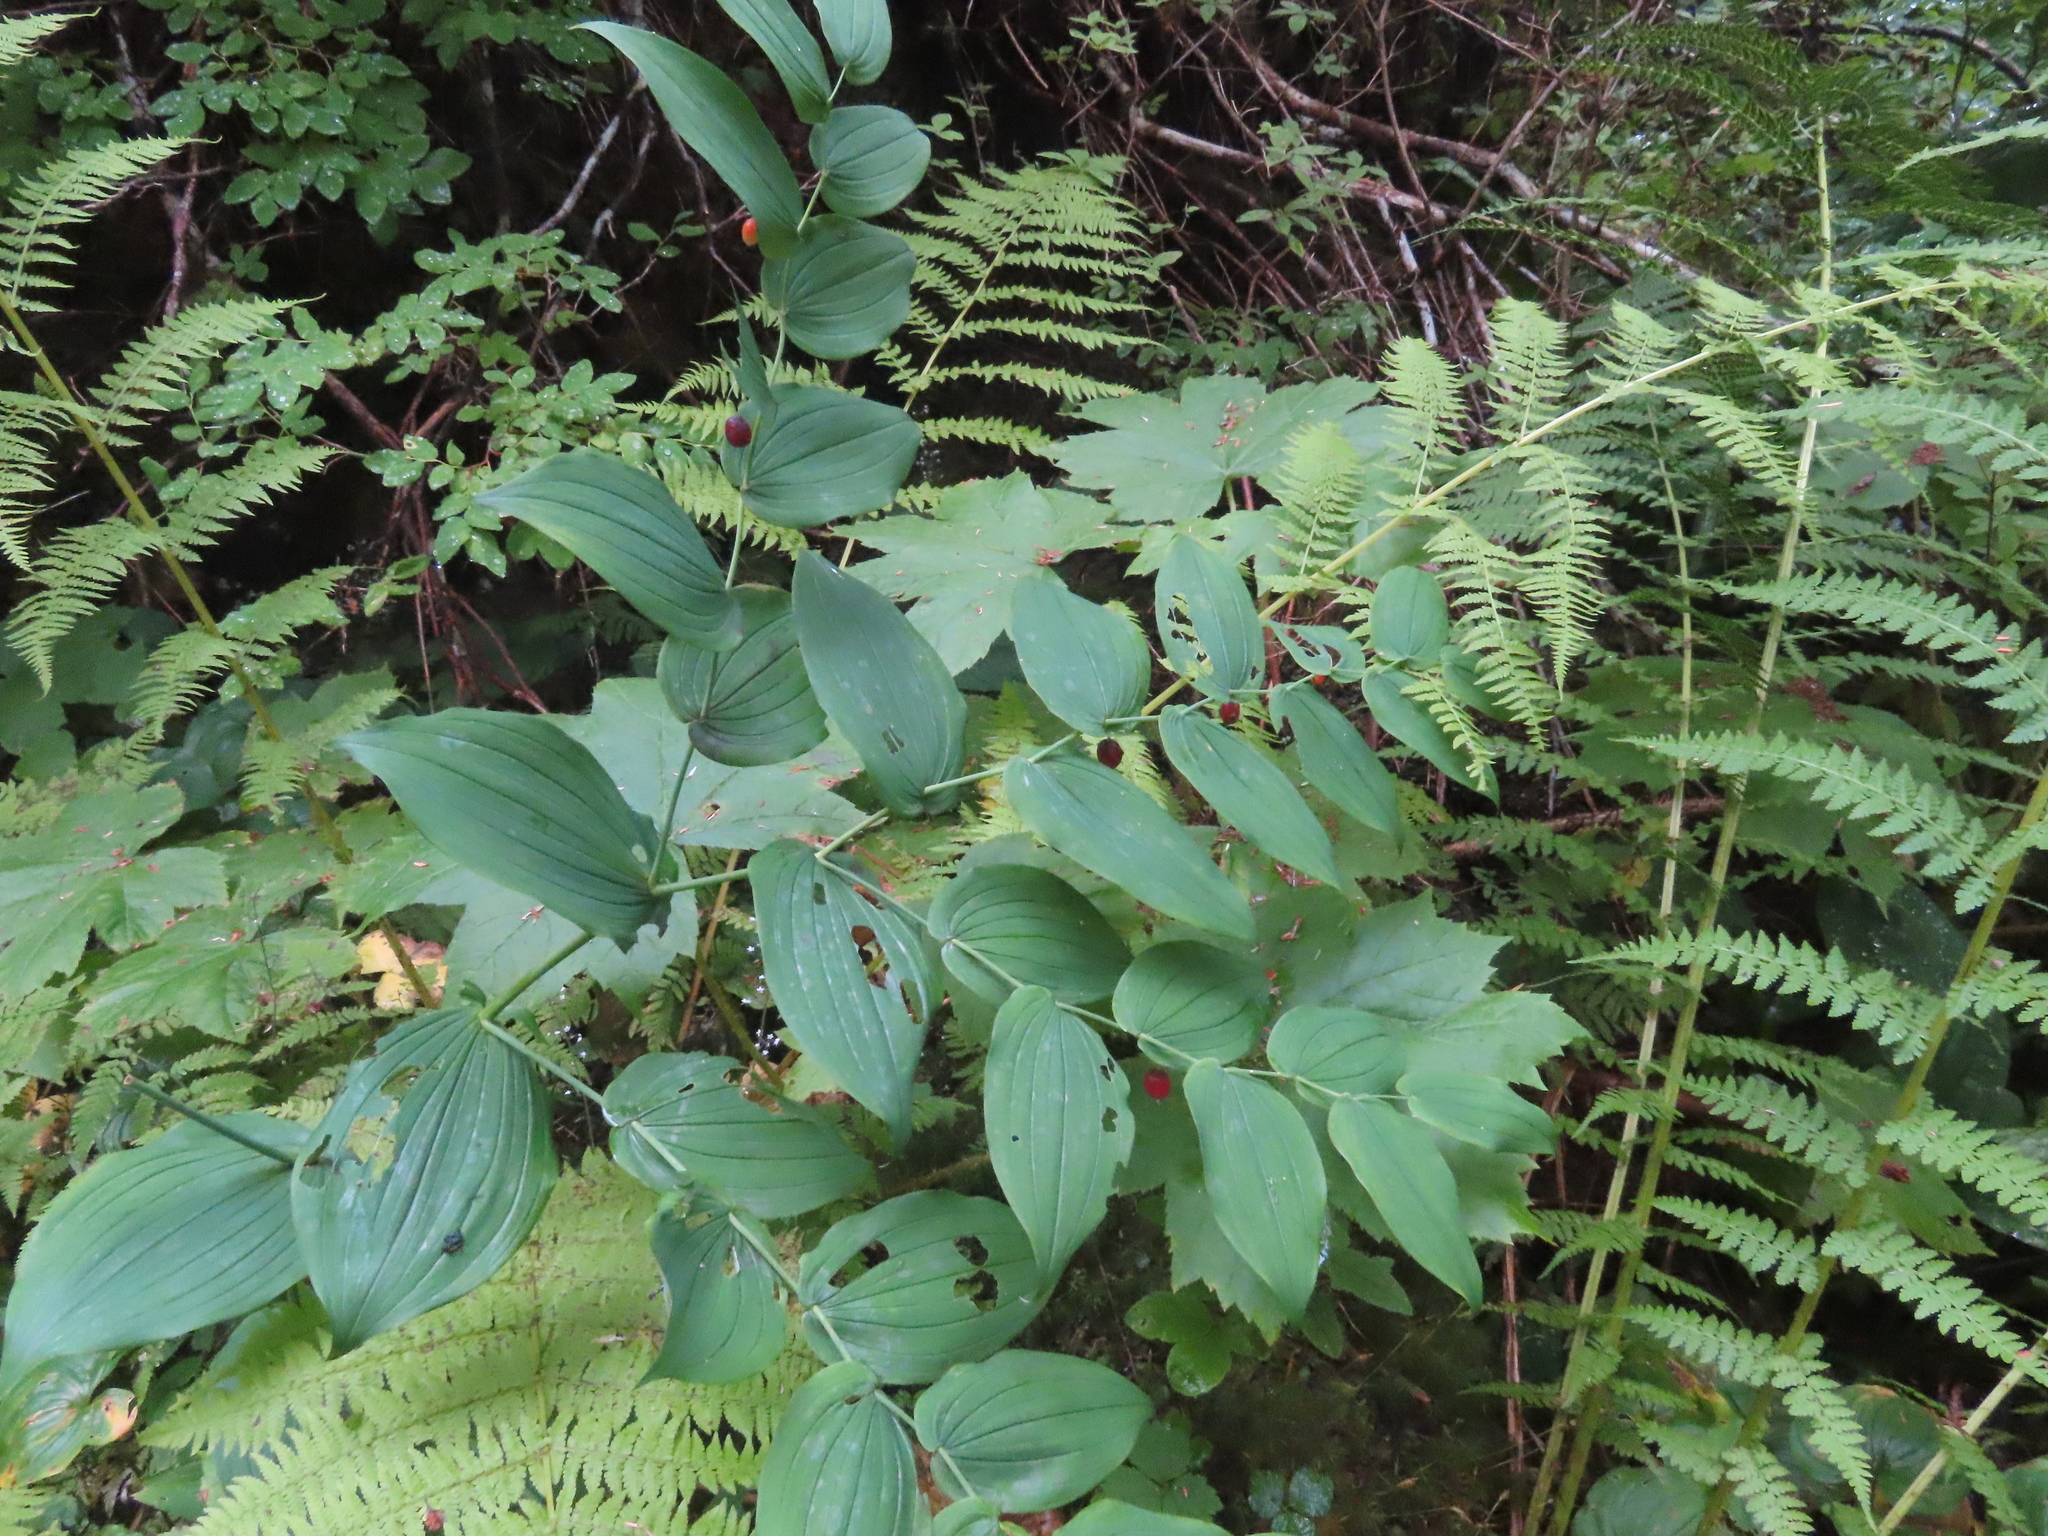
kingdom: Plantae
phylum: Tracheophyta
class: Liliopsida
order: Liliales
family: Liliaceae
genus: Streptopus
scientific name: Streptopus amplexifolius
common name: Clasp twisted stalk
